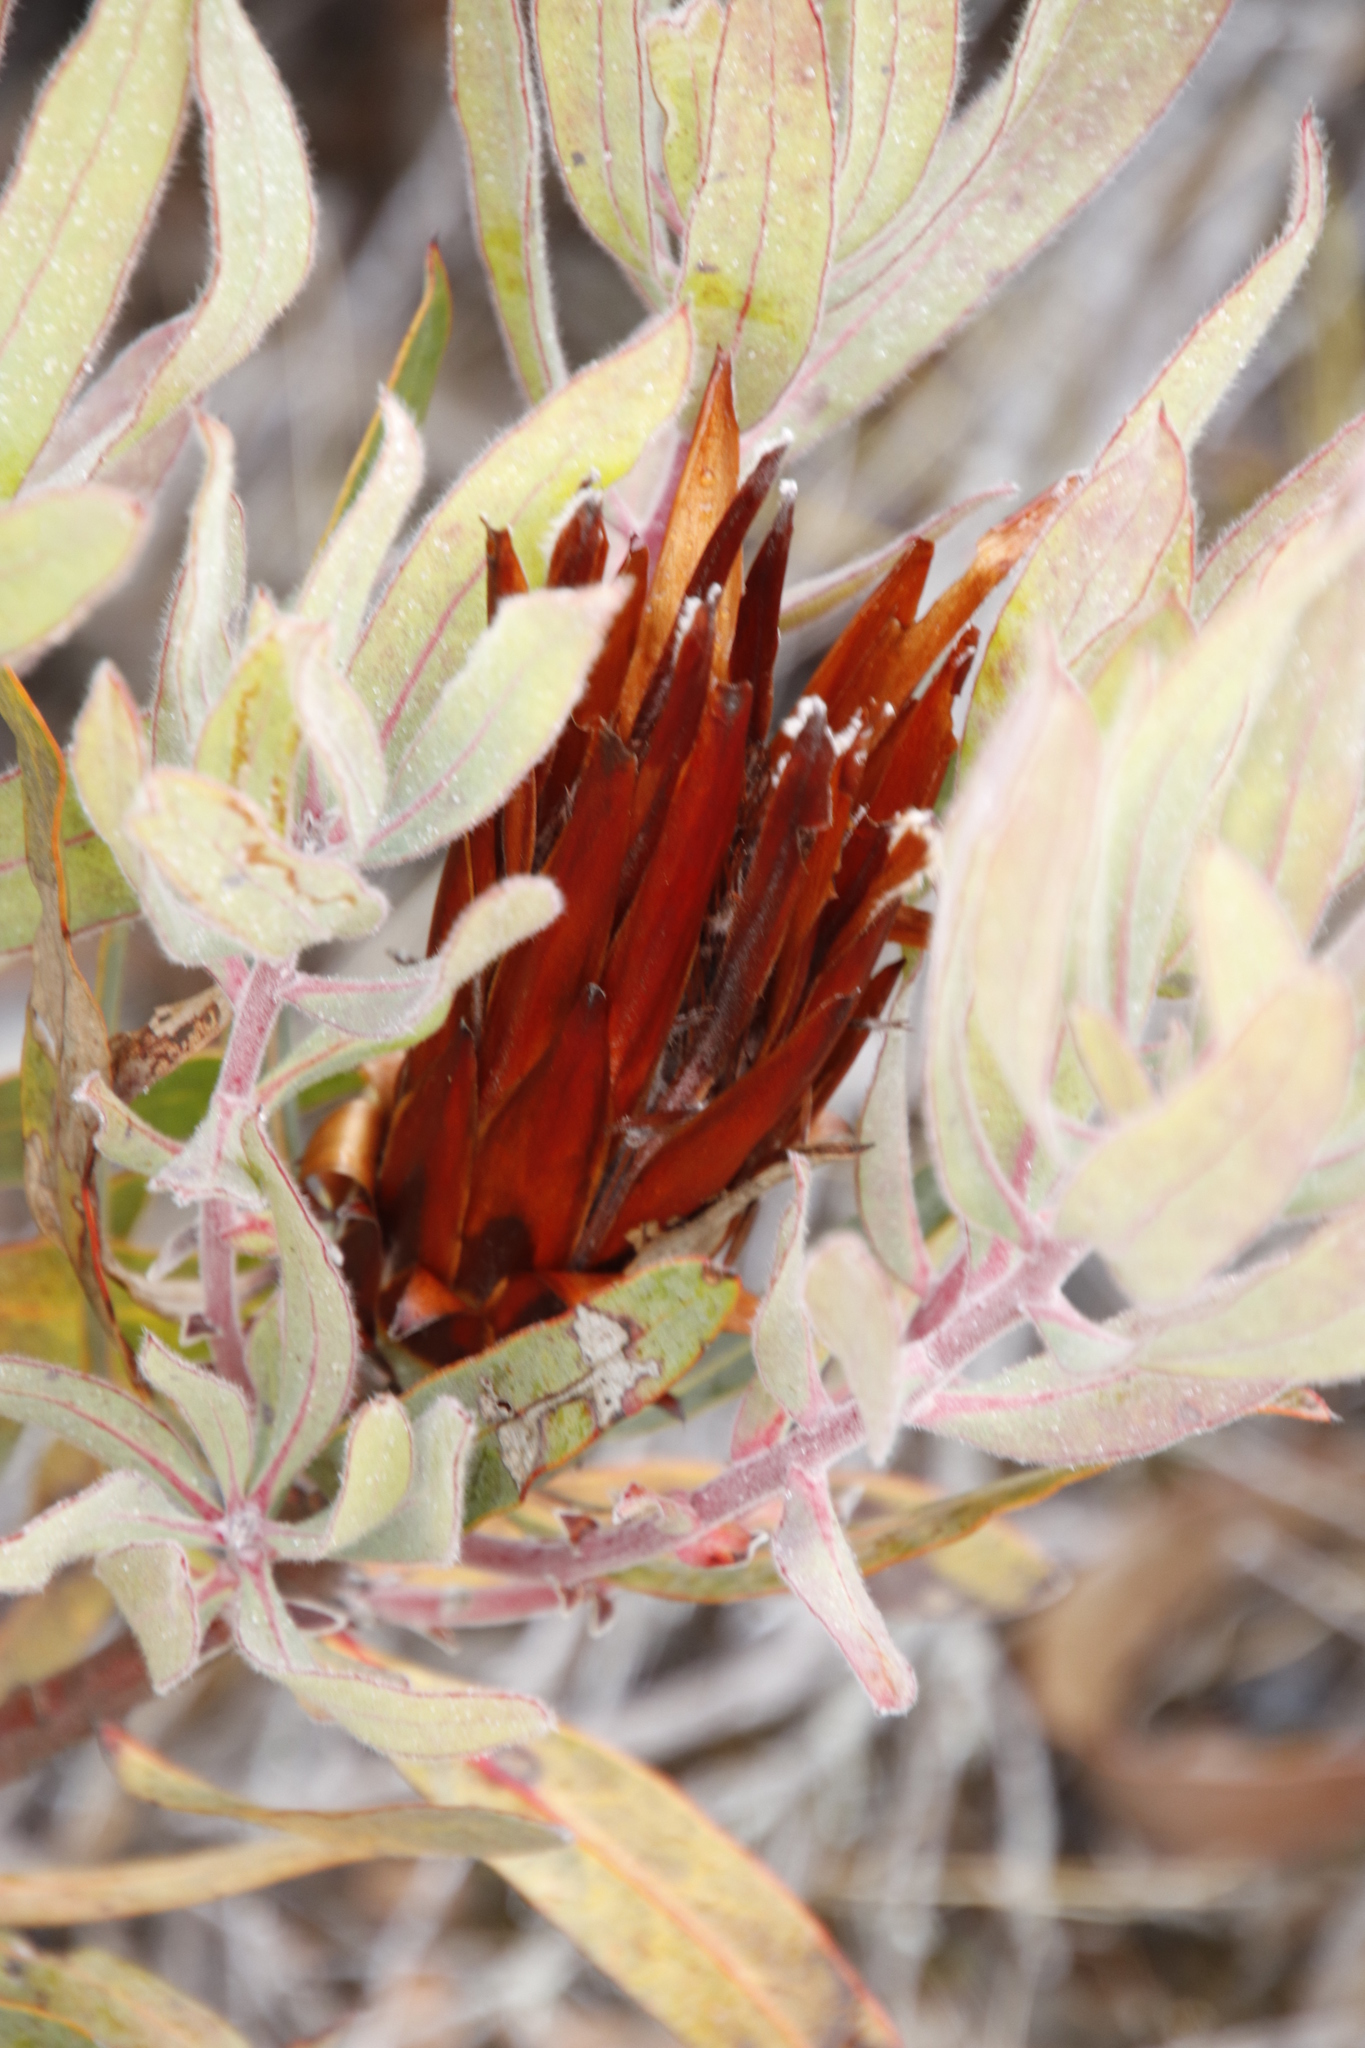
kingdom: Plantae
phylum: Tracheophyta
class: Magnoliopsida
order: Proteales
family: Proteaceae
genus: Protea
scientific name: Protea
